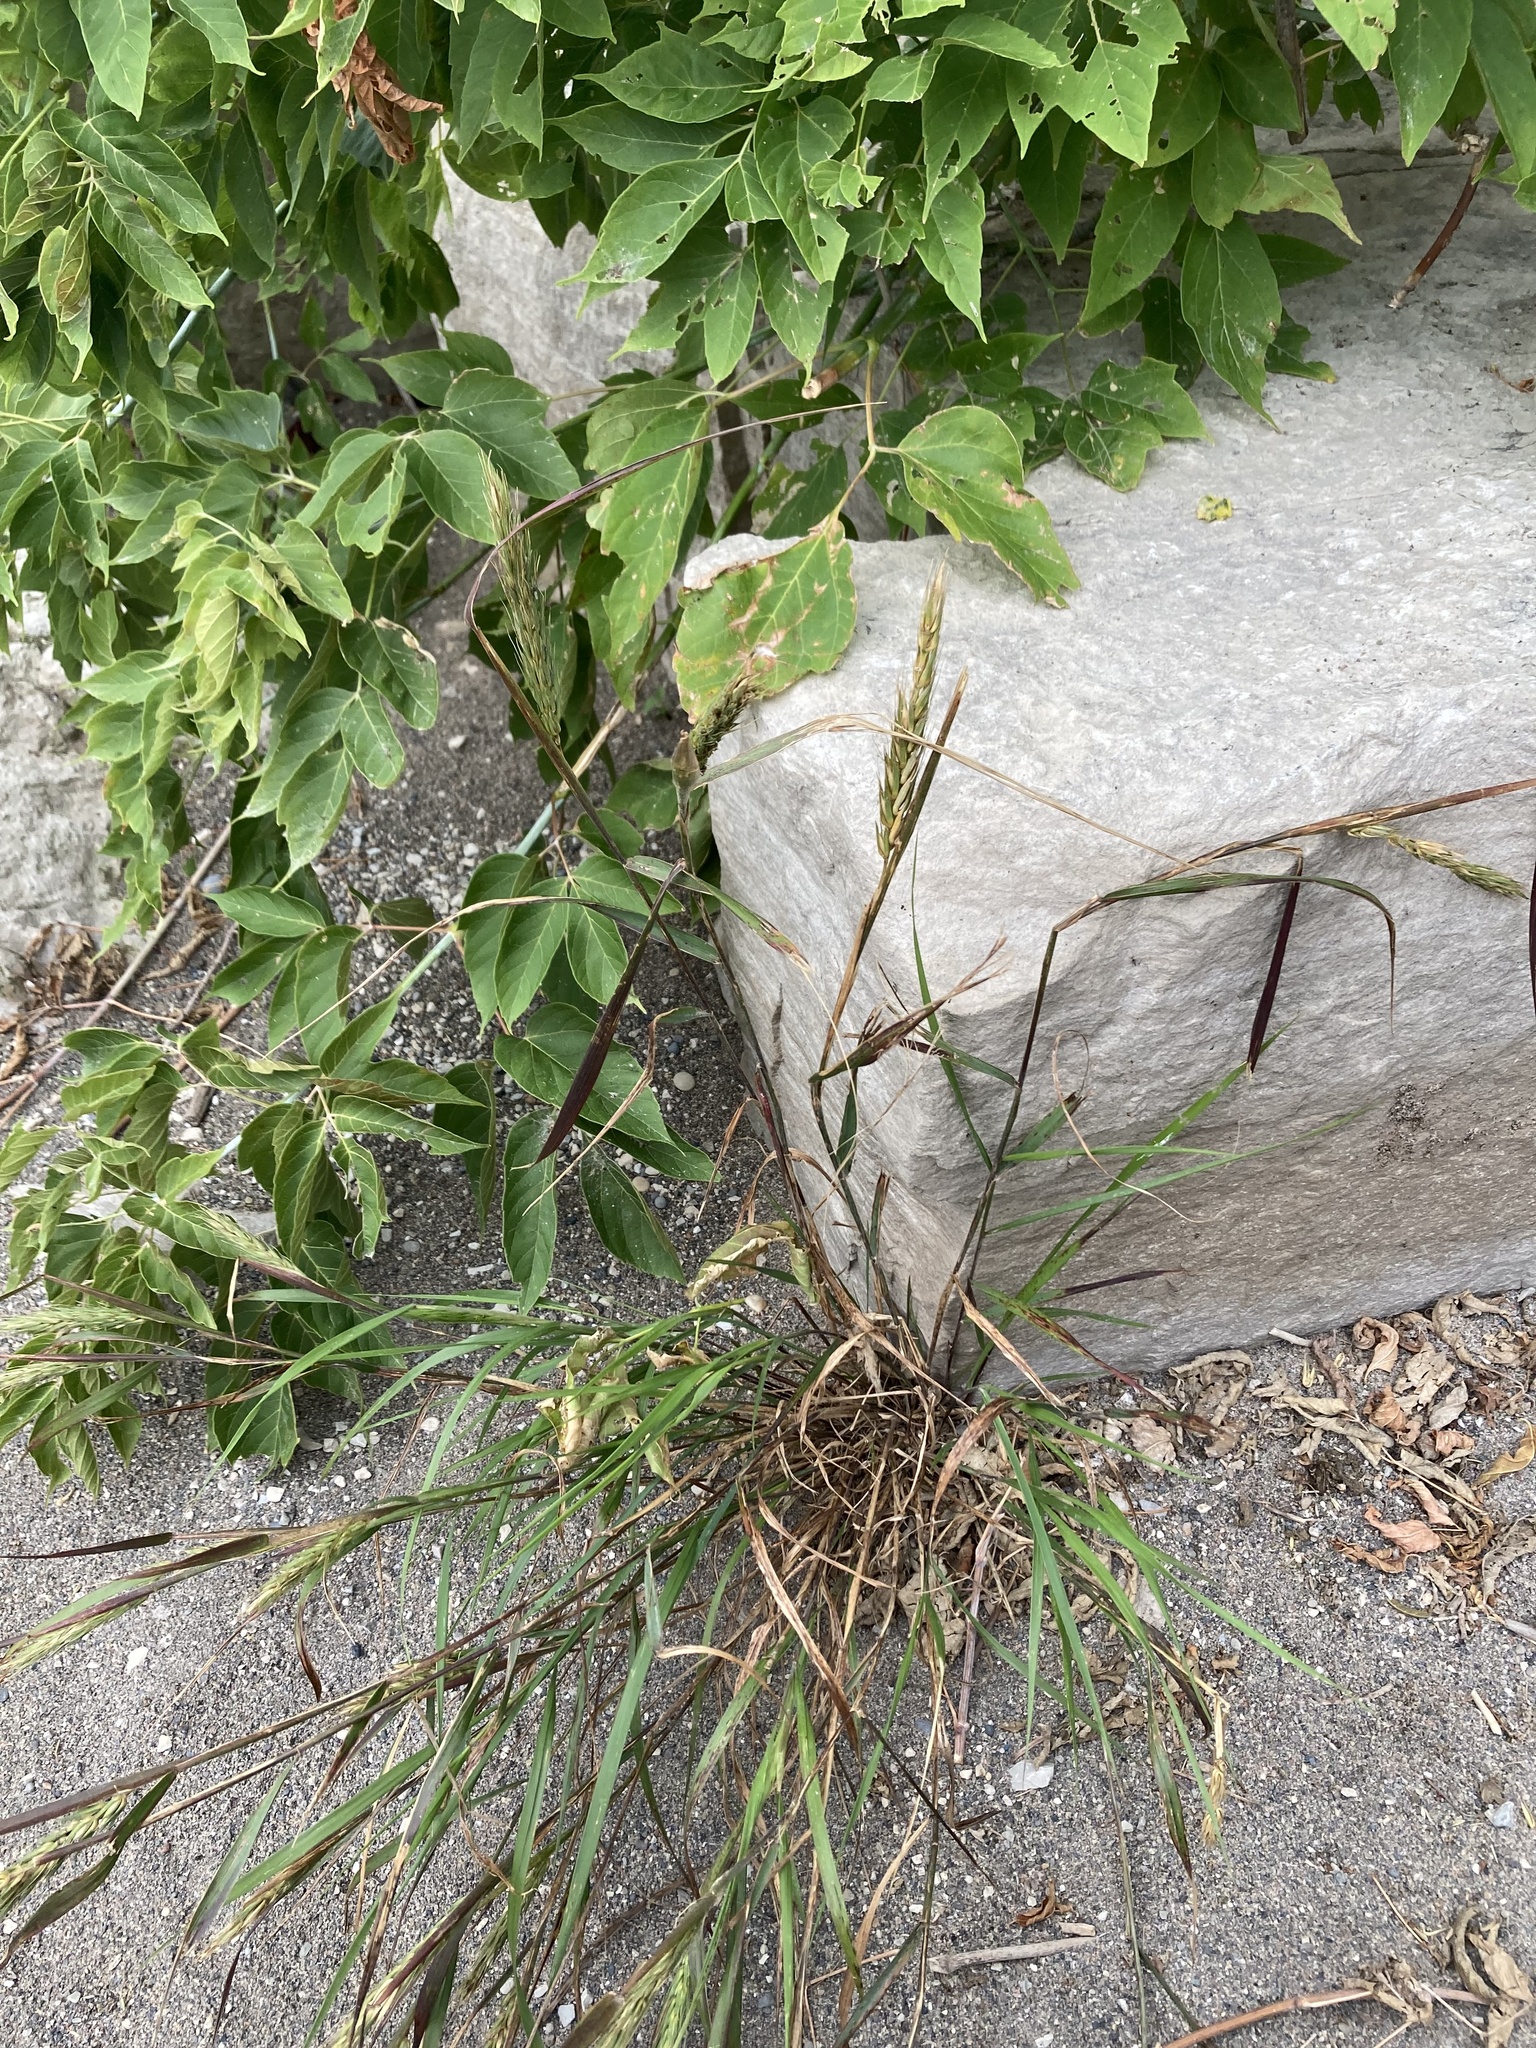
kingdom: Plantae
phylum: Tracheophyta
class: Liliopsida
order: Poales
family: Poaceae
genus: Elymus
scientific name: Elymus virginicus
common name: Common eastern wildrye
